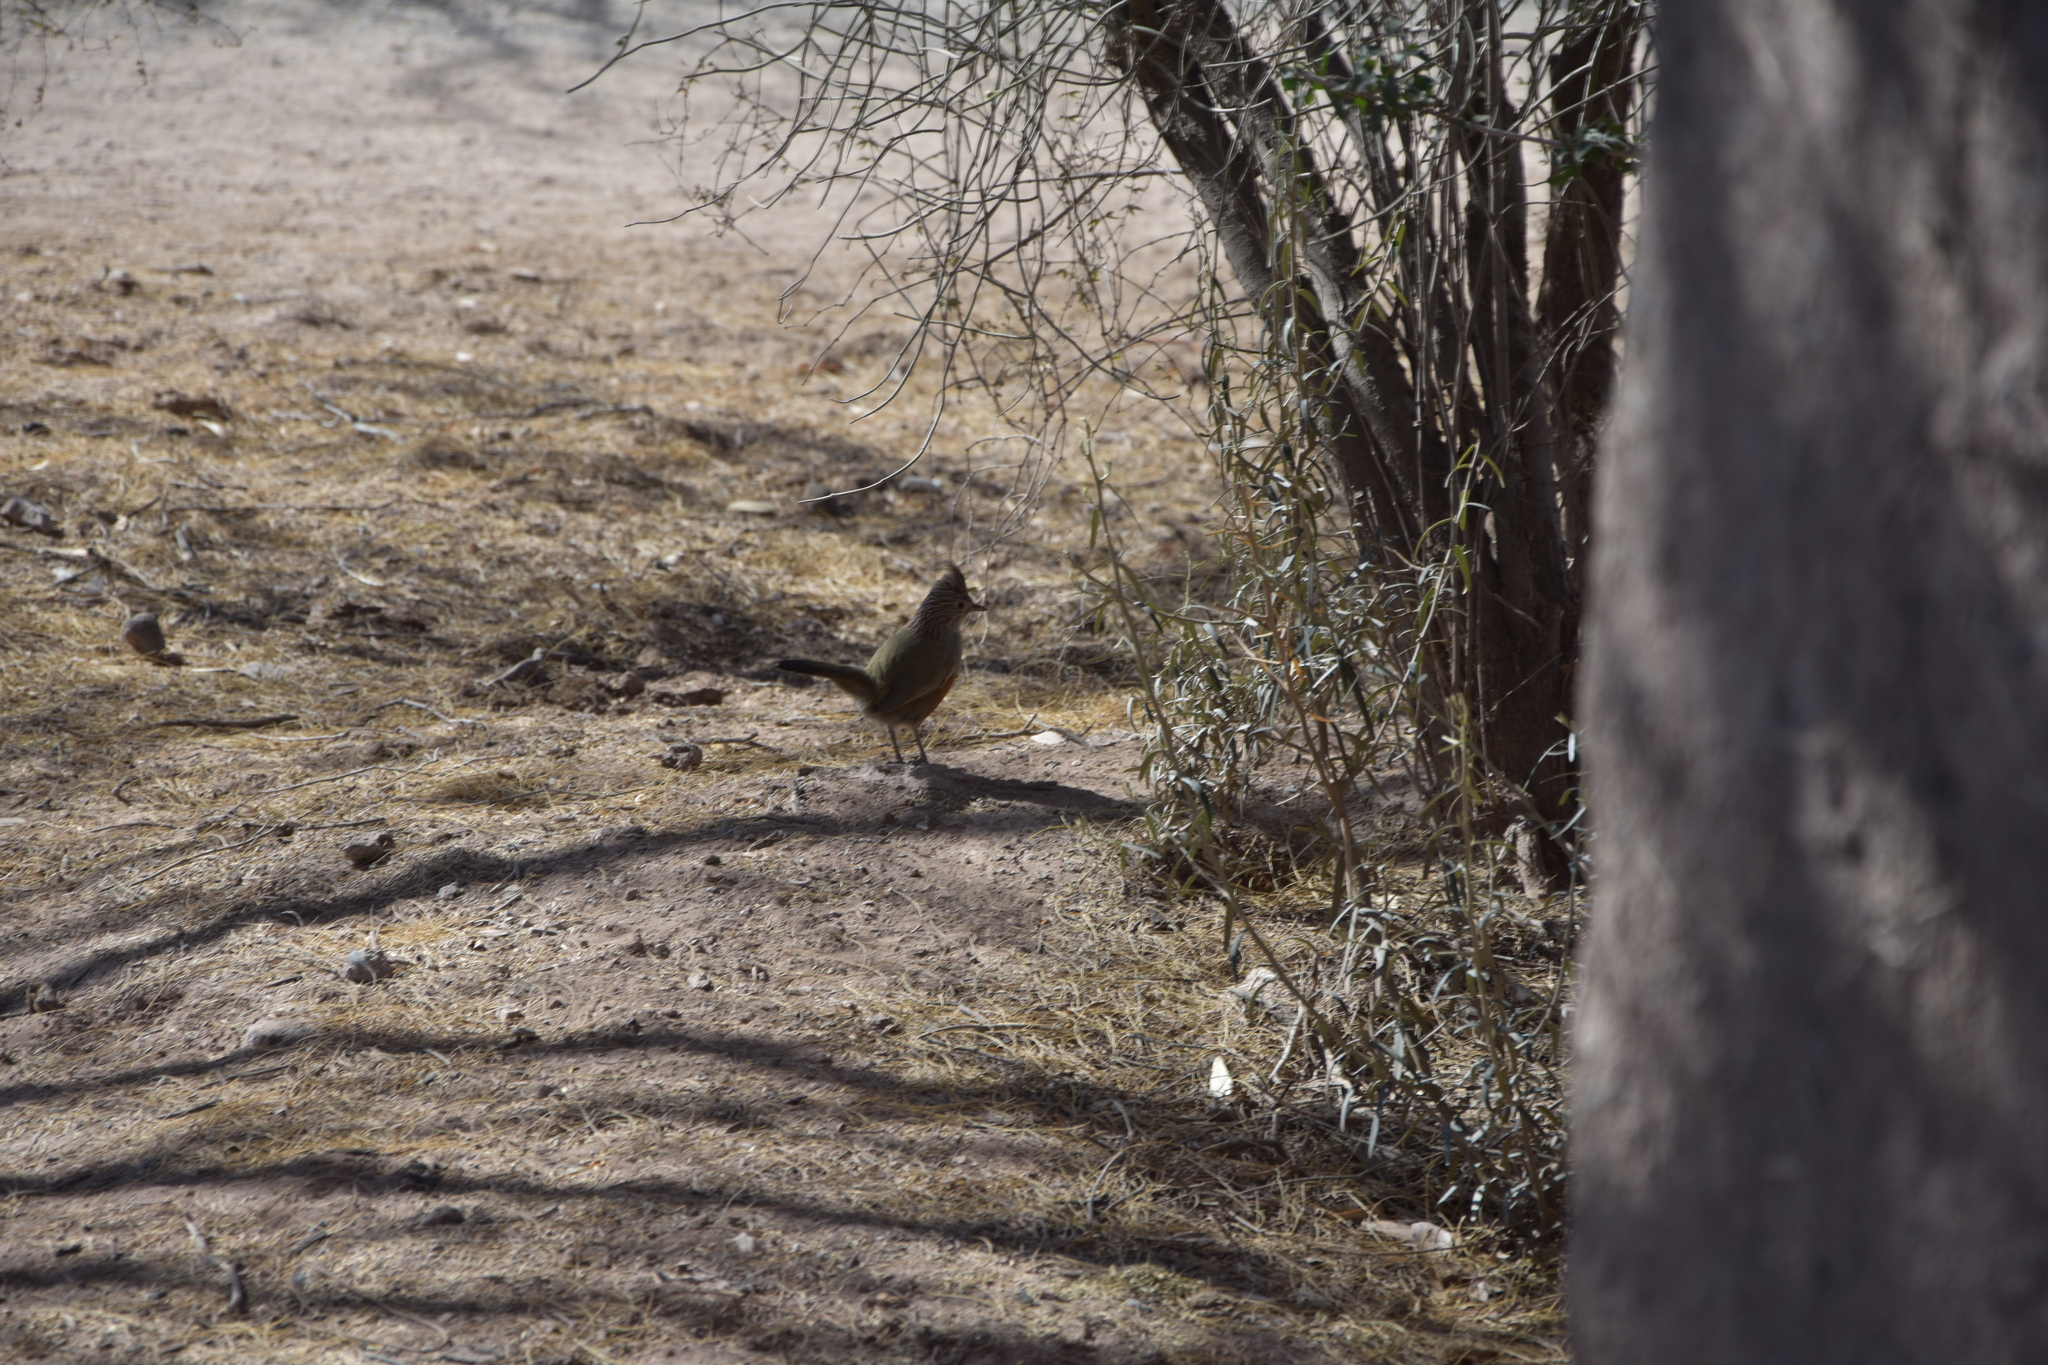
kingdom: Animalia
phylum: Chordata
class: Aves
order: Passeriformes
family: Rhinocryptidae
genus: Rhinocrypta
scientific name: Rhinocrypta lanceolata
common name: Crested gallito
